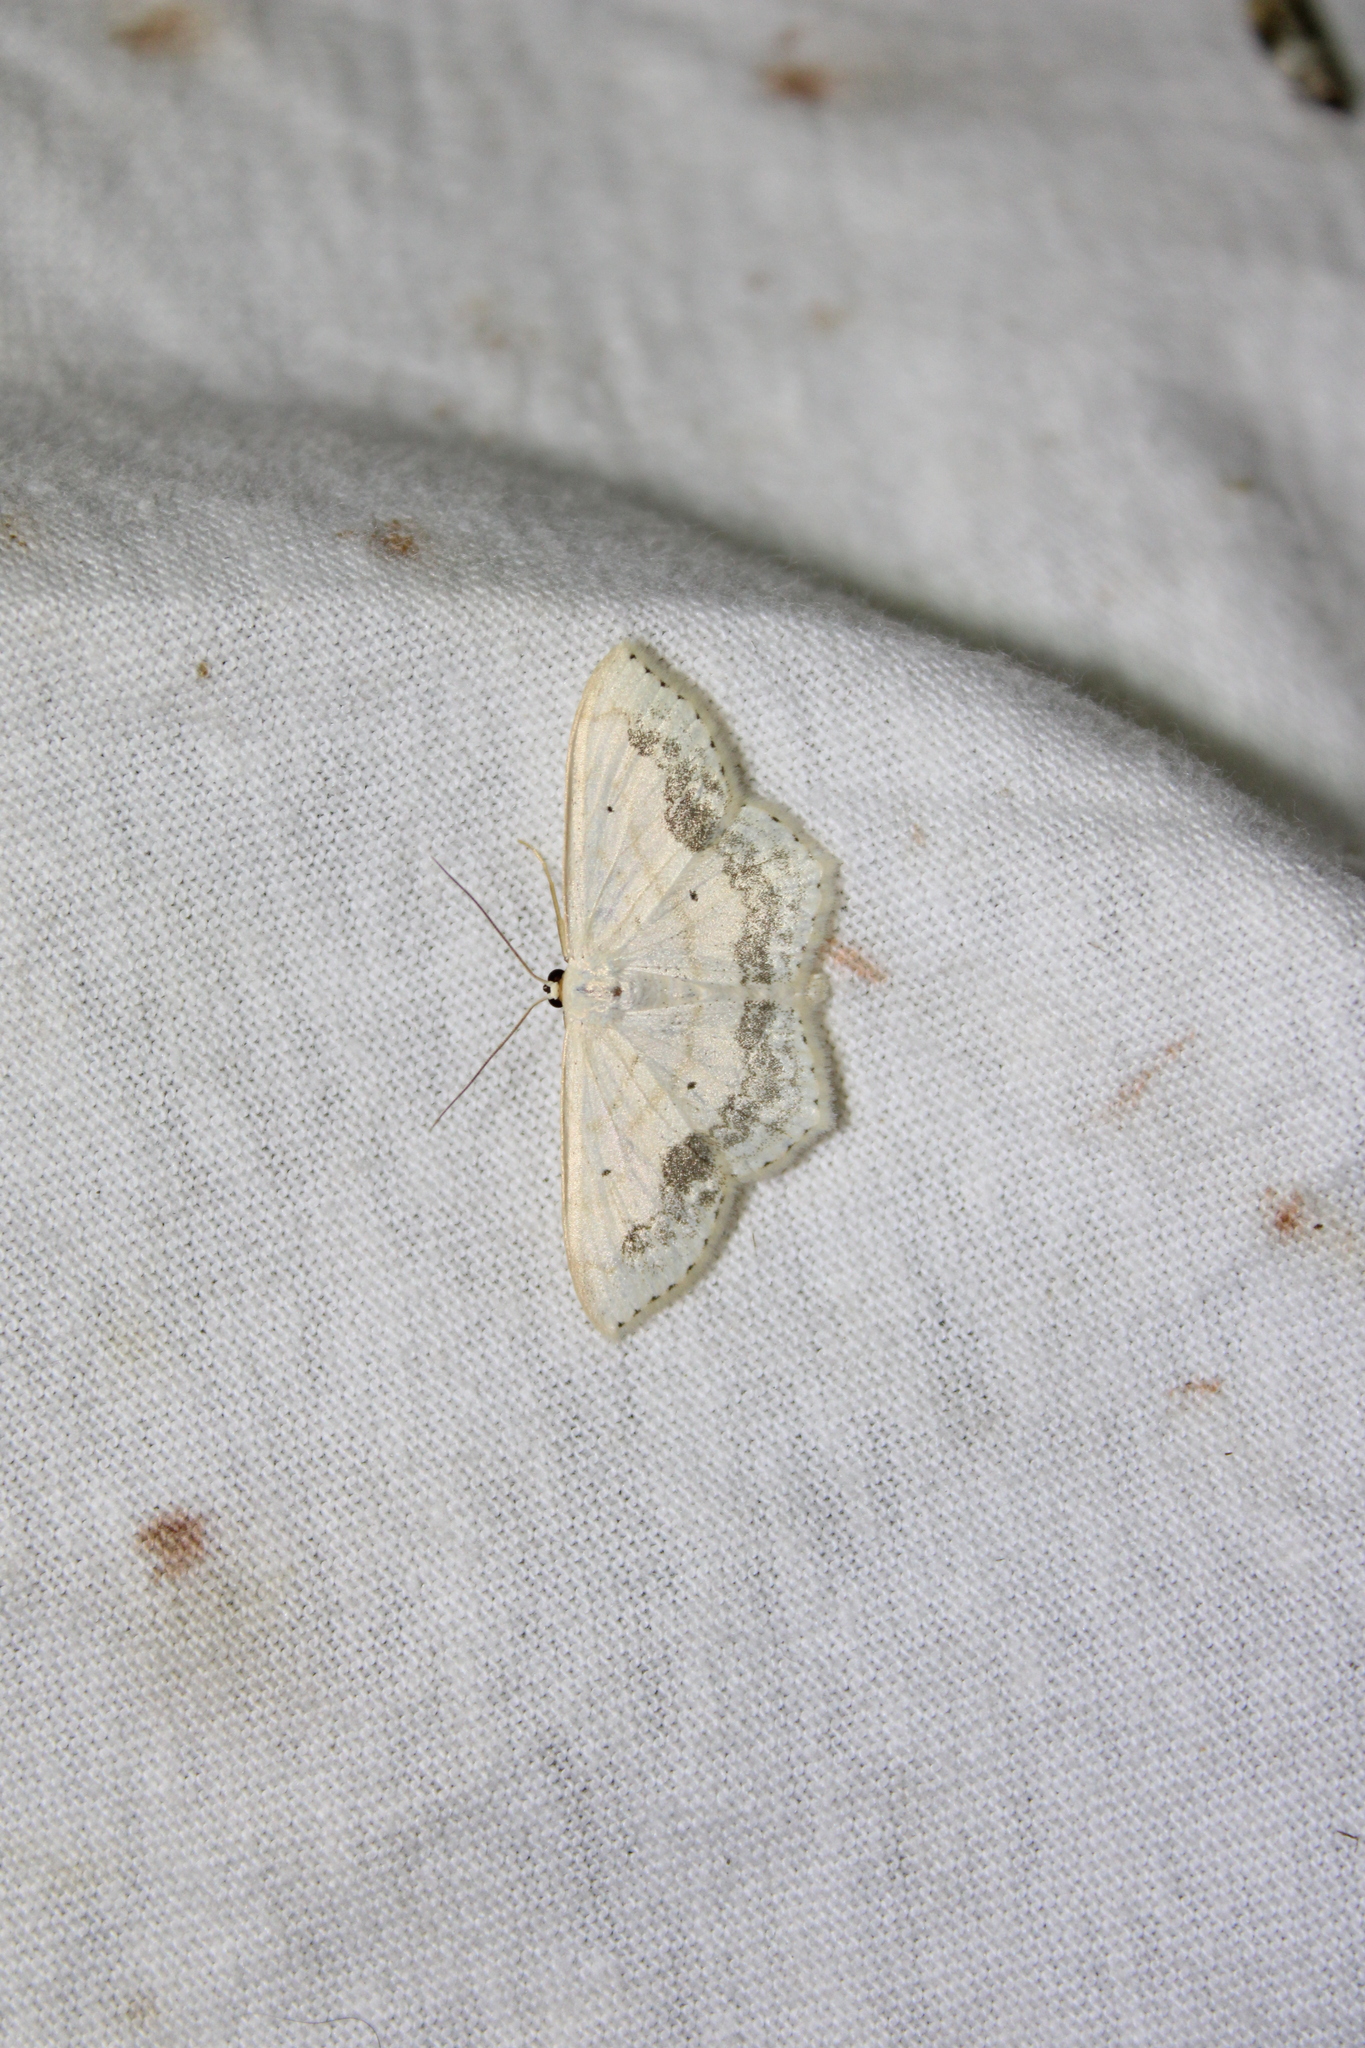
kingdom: Animalia
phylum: Arthropoda
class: Insecta
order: Lepidoptera
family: Geometridae
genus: Scopula
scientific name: Scopula limboundata
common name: Large lace border
